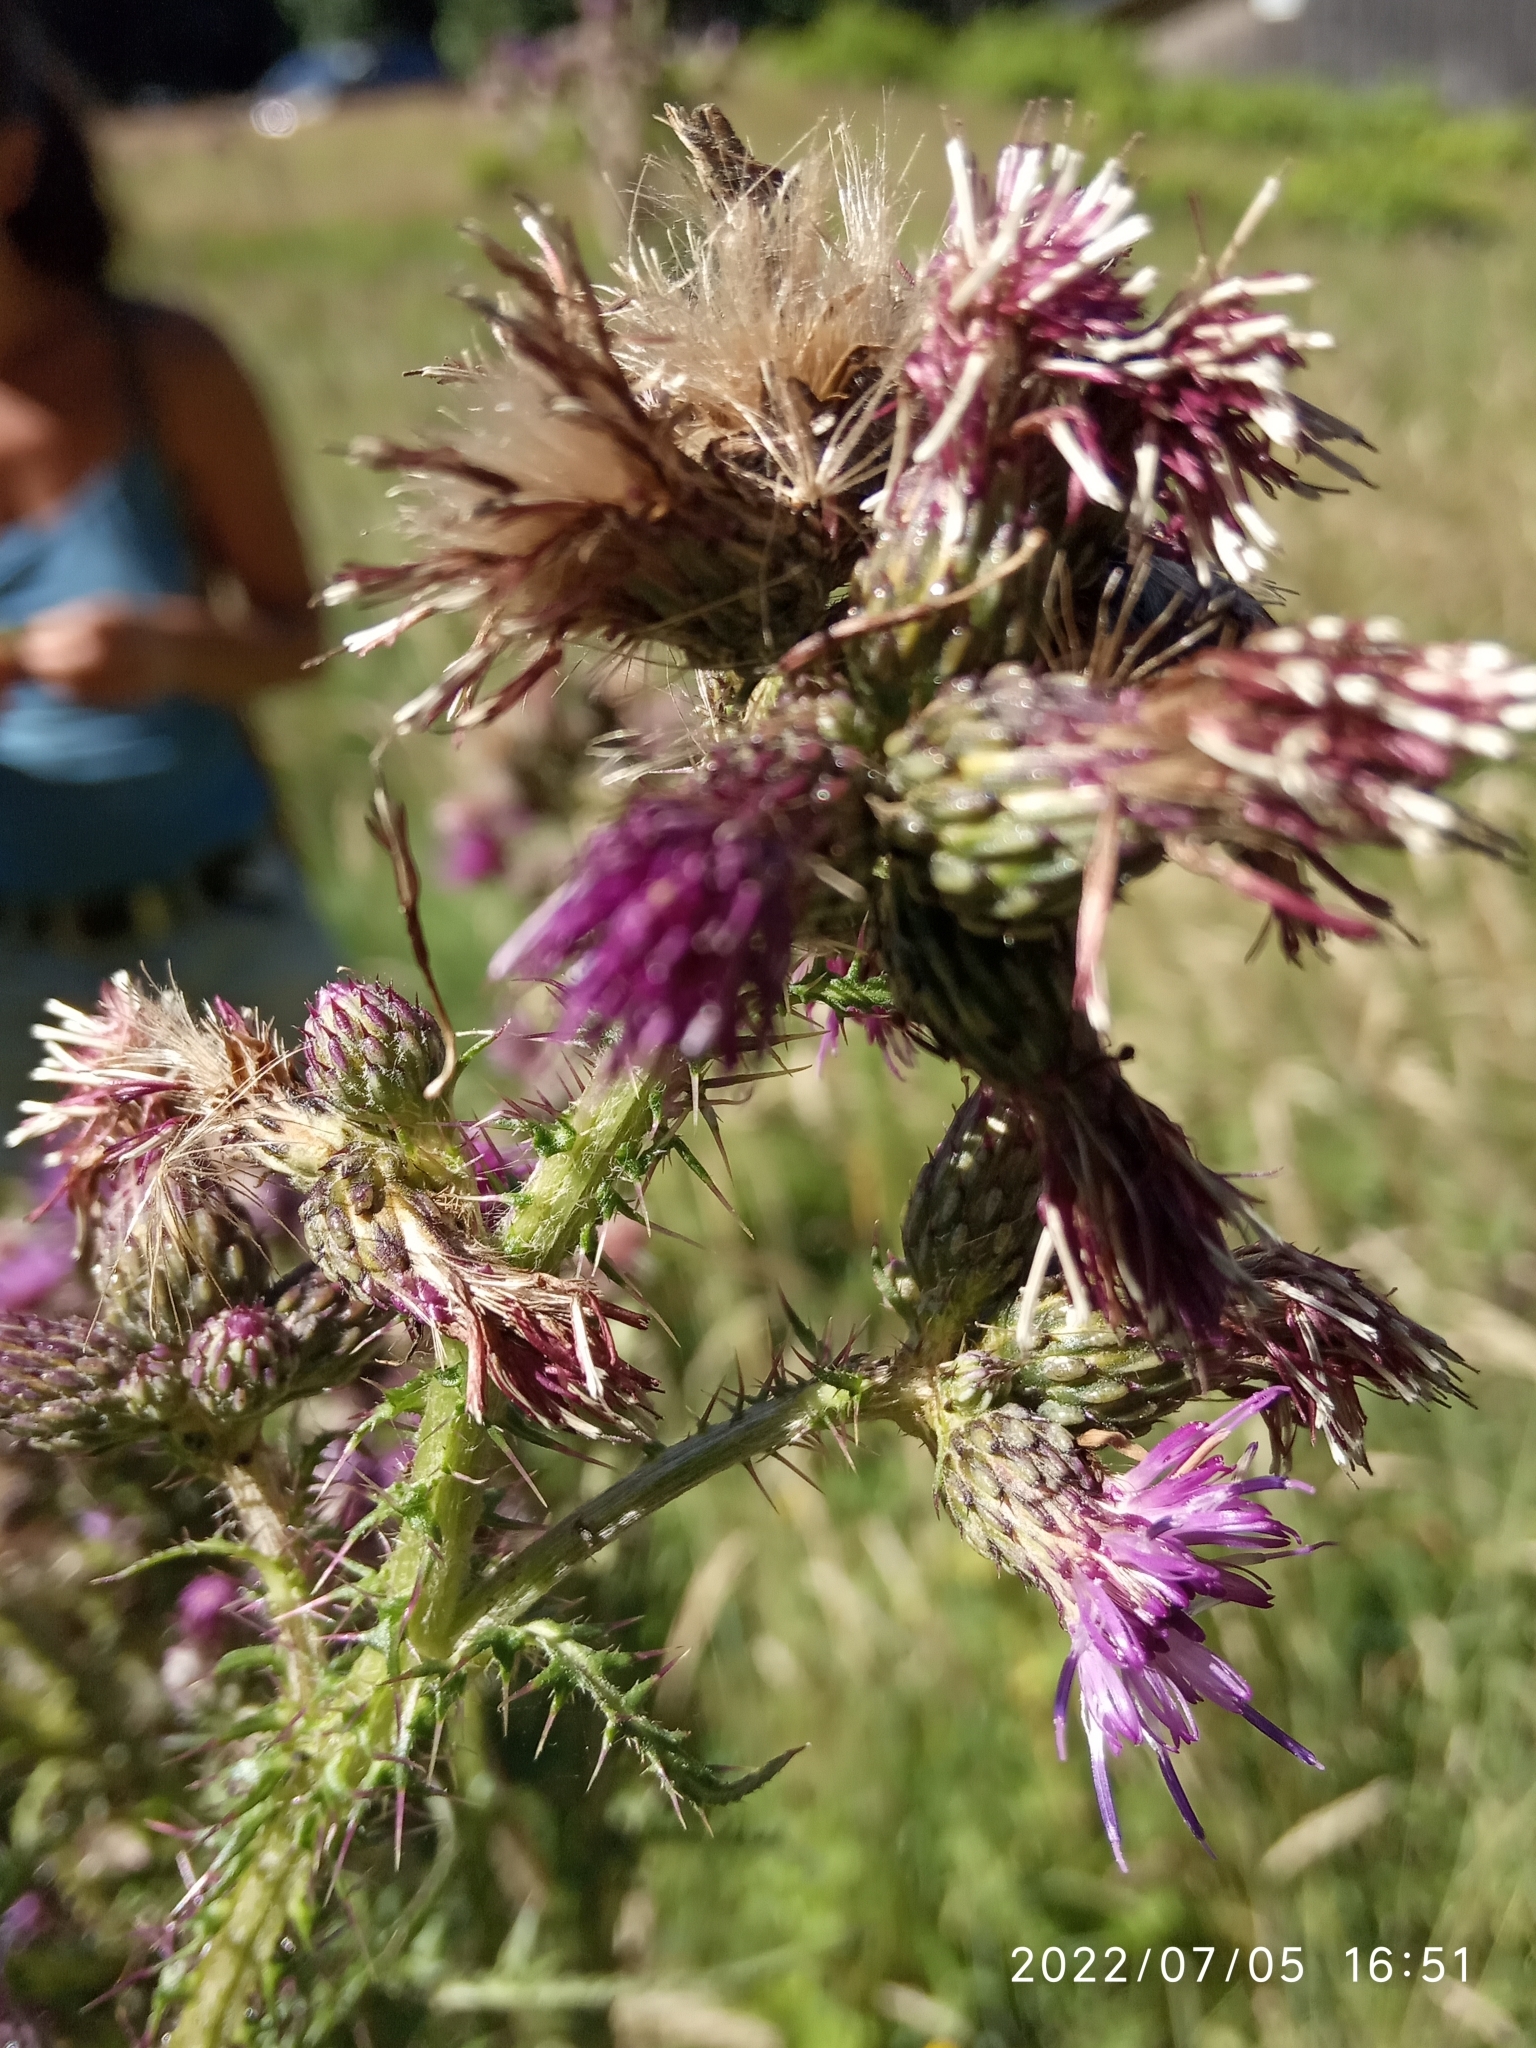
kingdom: Plantae
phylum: Tracheophyta
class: Magnoliopsida
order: Asterales
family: Asteraceae
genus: Cirsium
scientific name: Cirsium palustre
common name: Marsh thistle
